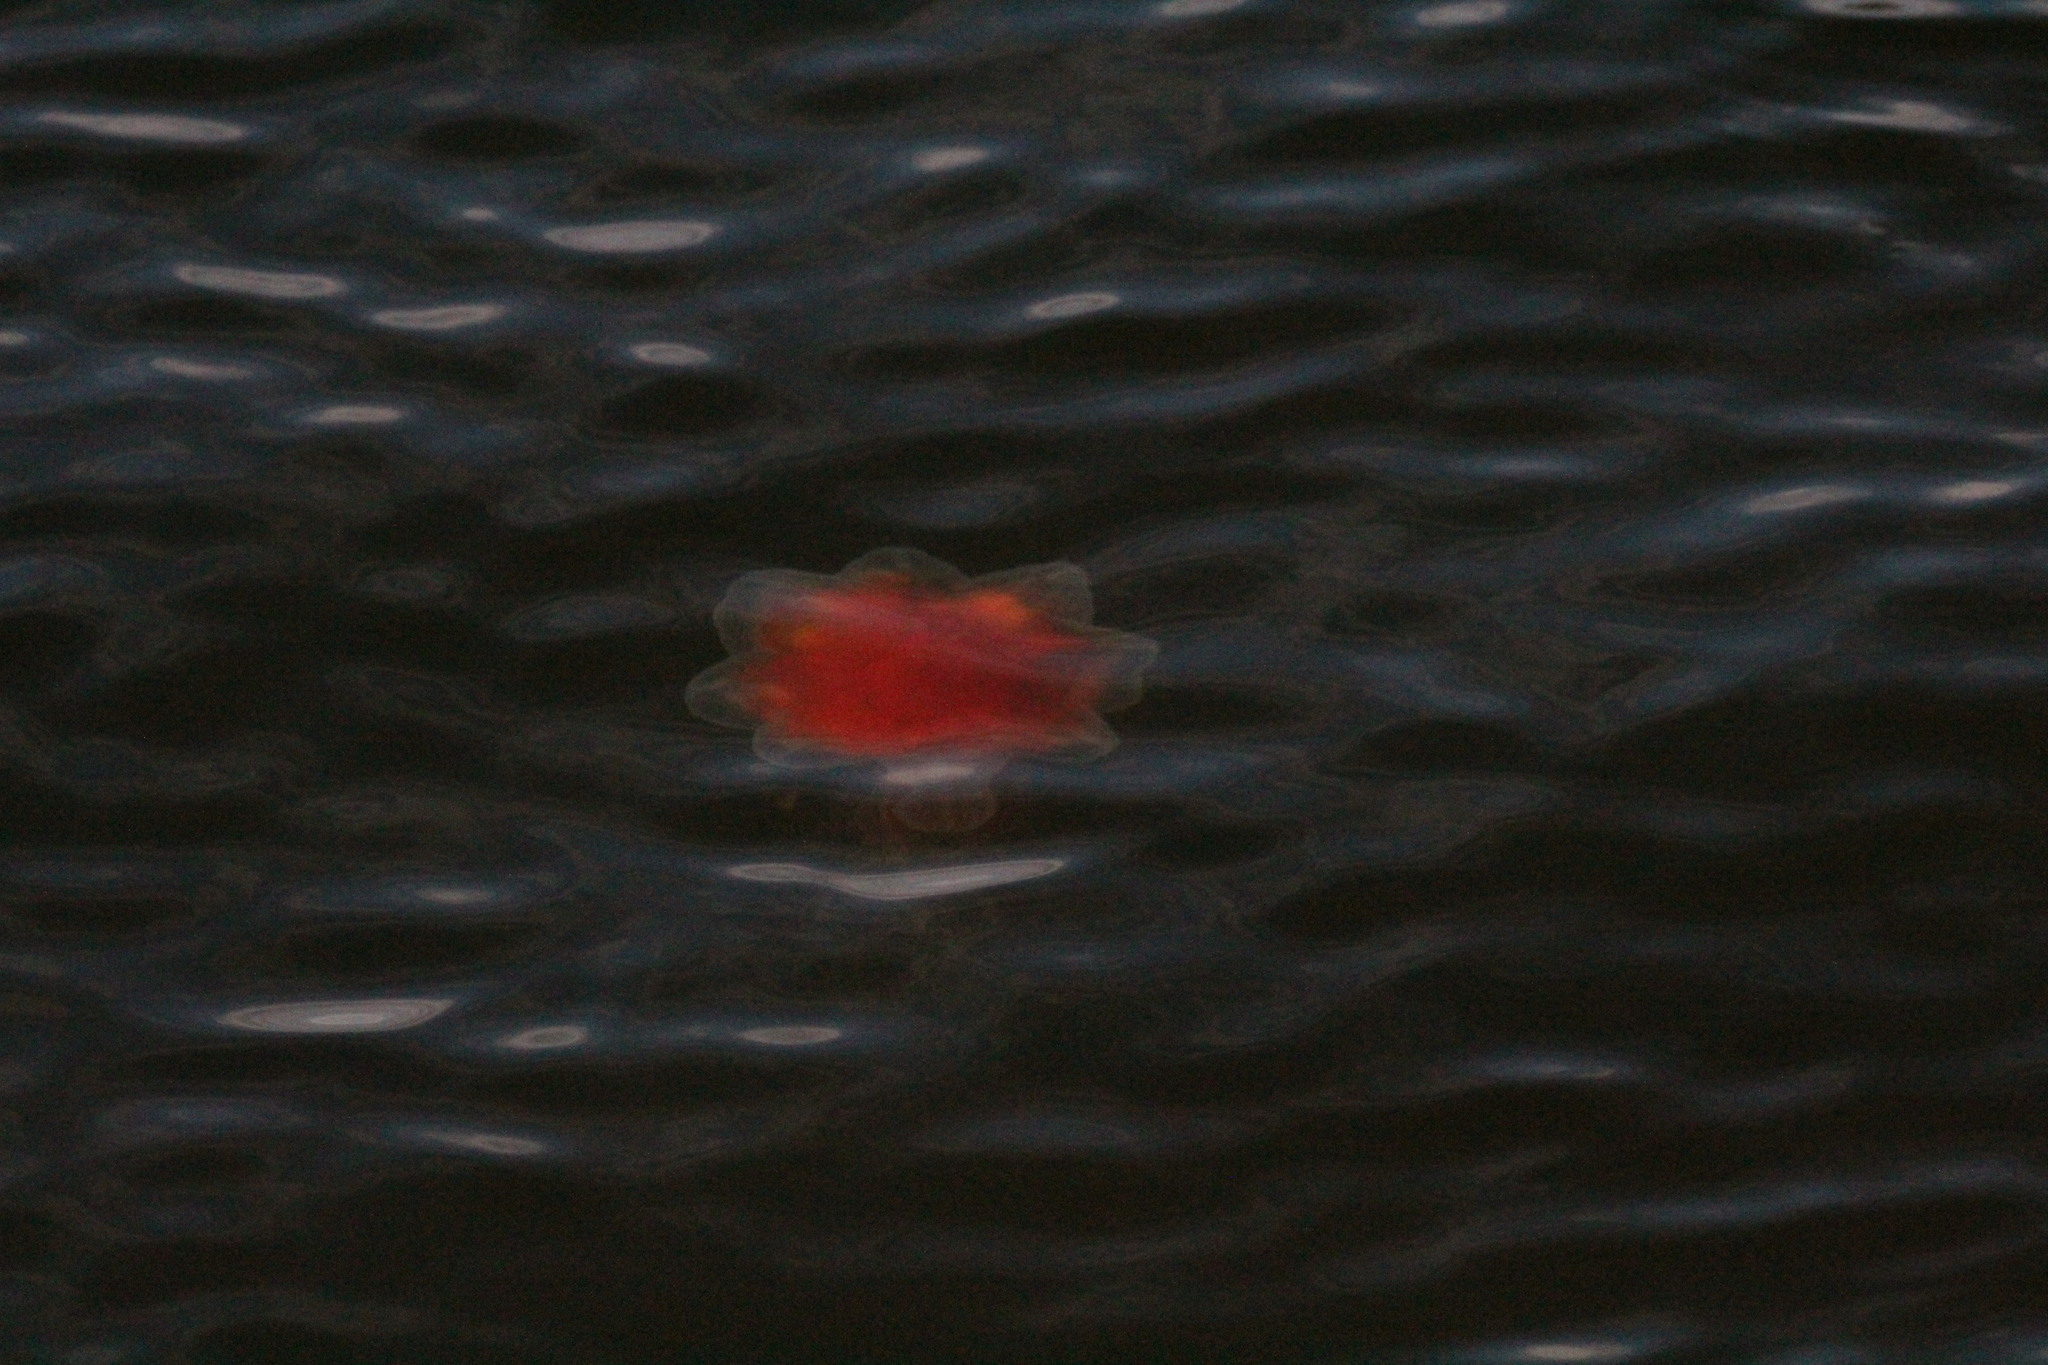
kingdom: Animalia
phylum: Cnidaria
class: Scyphozoa
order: Semaeostomeae
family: Cyaneidae
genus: Cyanea
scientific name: Cyanea ferruginea
